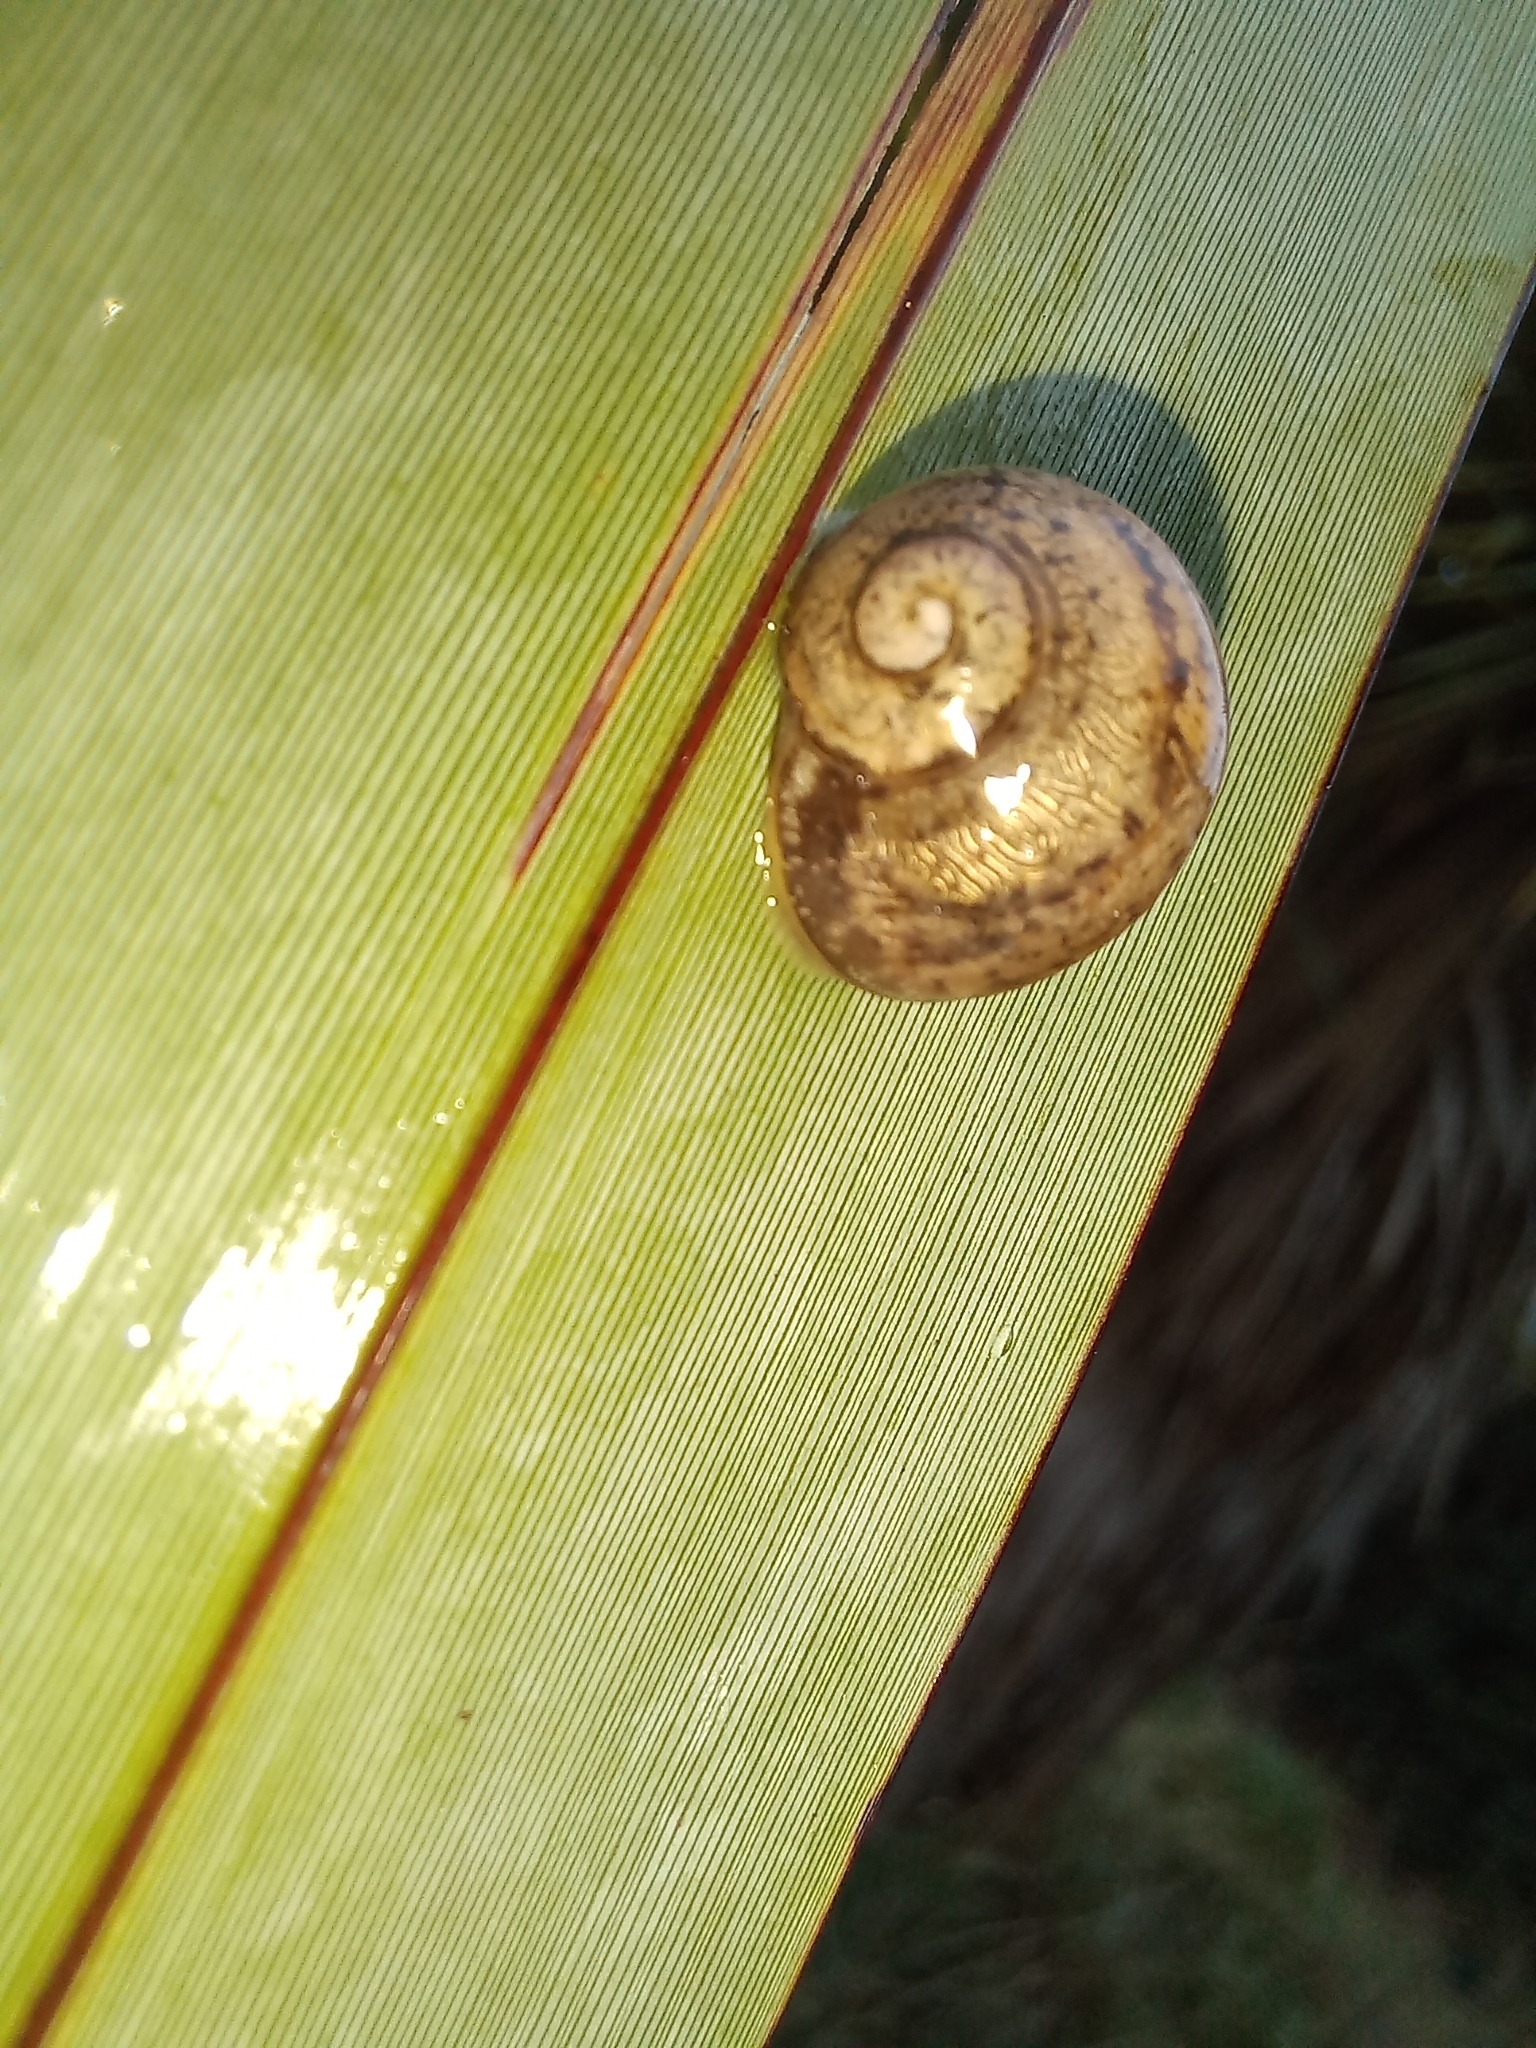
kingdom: Animalia
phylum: Mollusca
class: Gastropoda
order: Stylommatophora
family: Helicidae
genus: Cornu
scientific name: Cornu aspersum
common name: Brown garden snail
